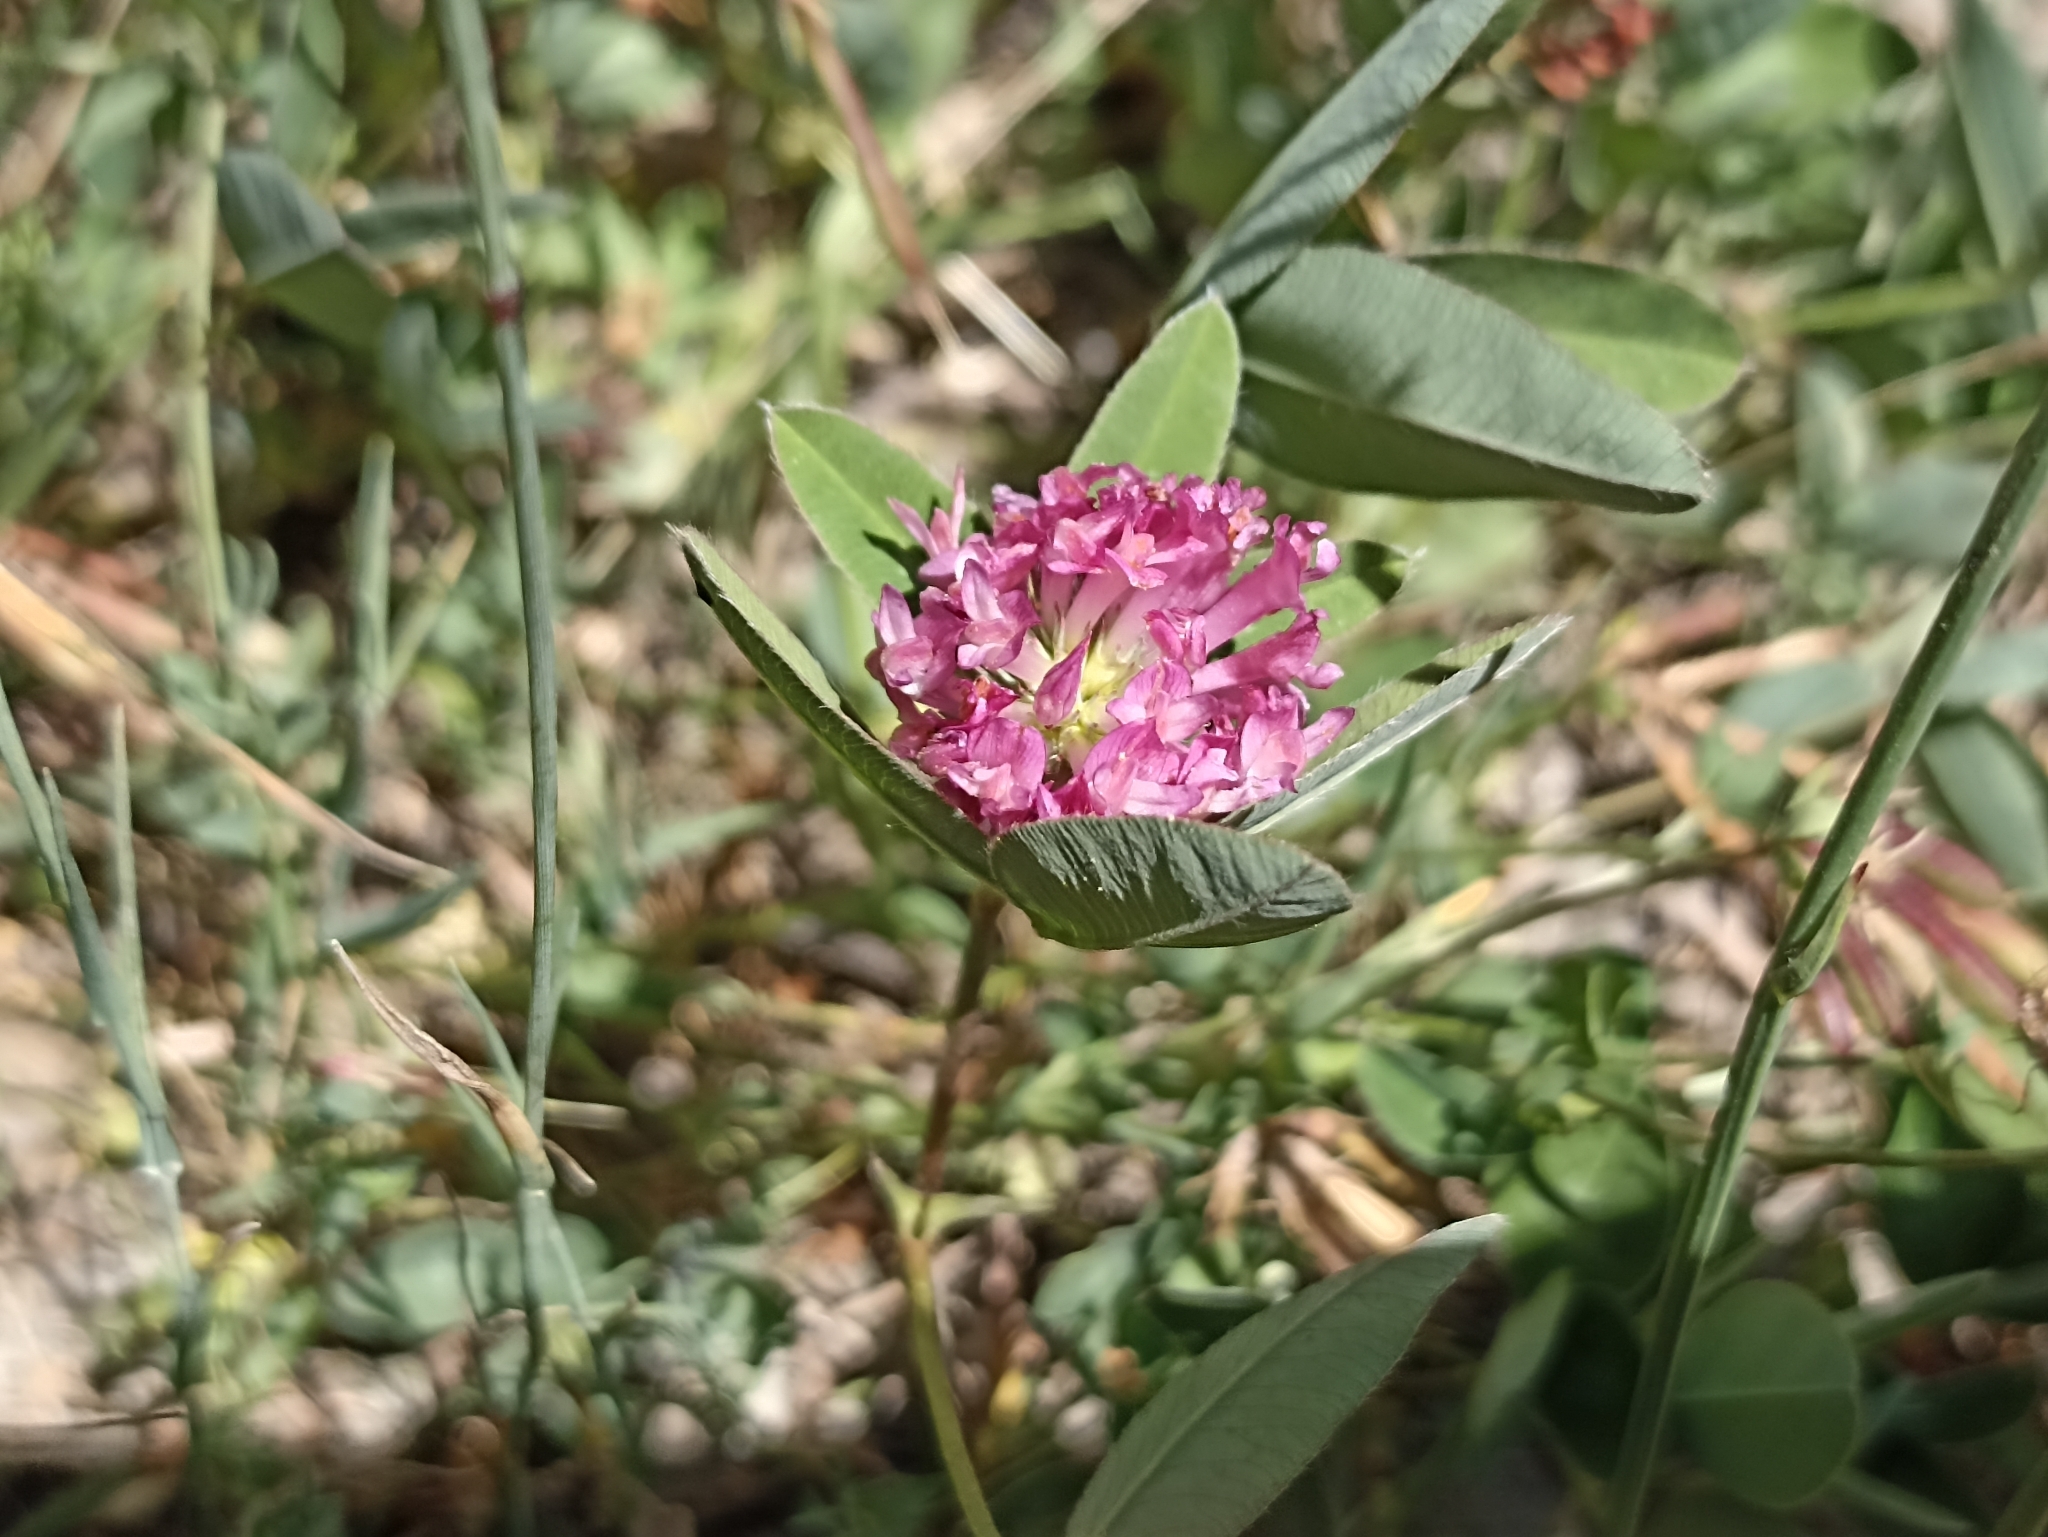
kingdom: Plantae
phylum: Tracheophyta
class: Magnoliopsida
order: Fabales
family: Fabaceae
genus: Trifolium
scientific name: Trifolium pratense
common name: Red clover
